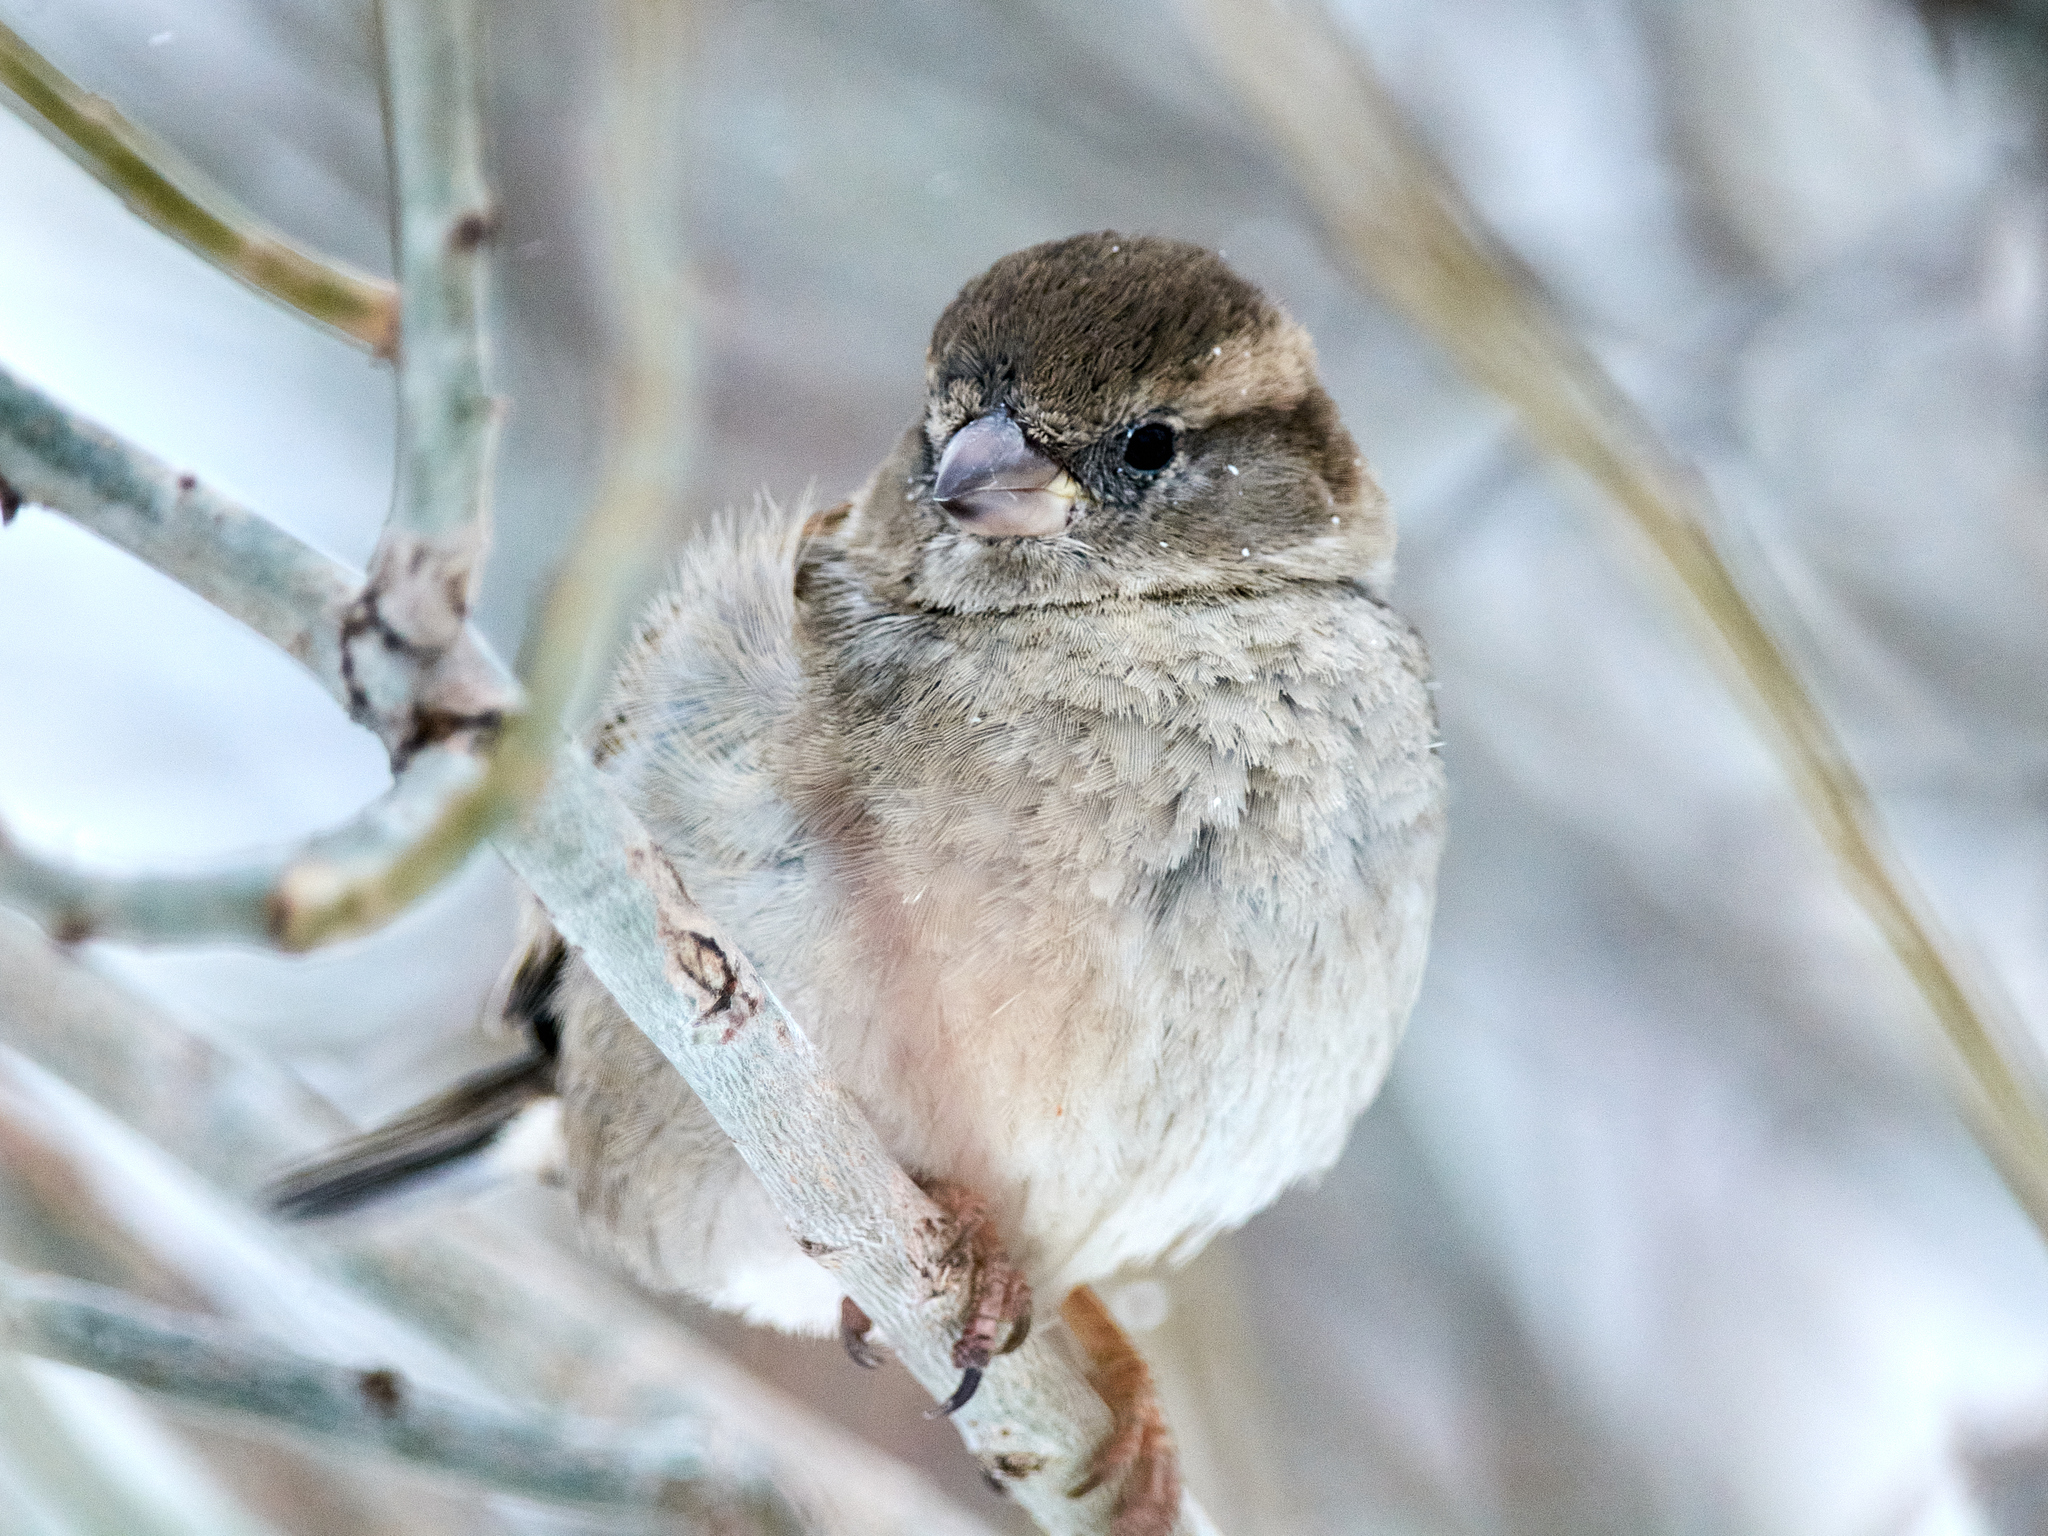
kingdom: Animalia
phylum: Chordata
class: Aves
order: Passeriformes
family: Passeridae
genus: Passer
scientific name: Passer domesticus
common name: House sparrow
